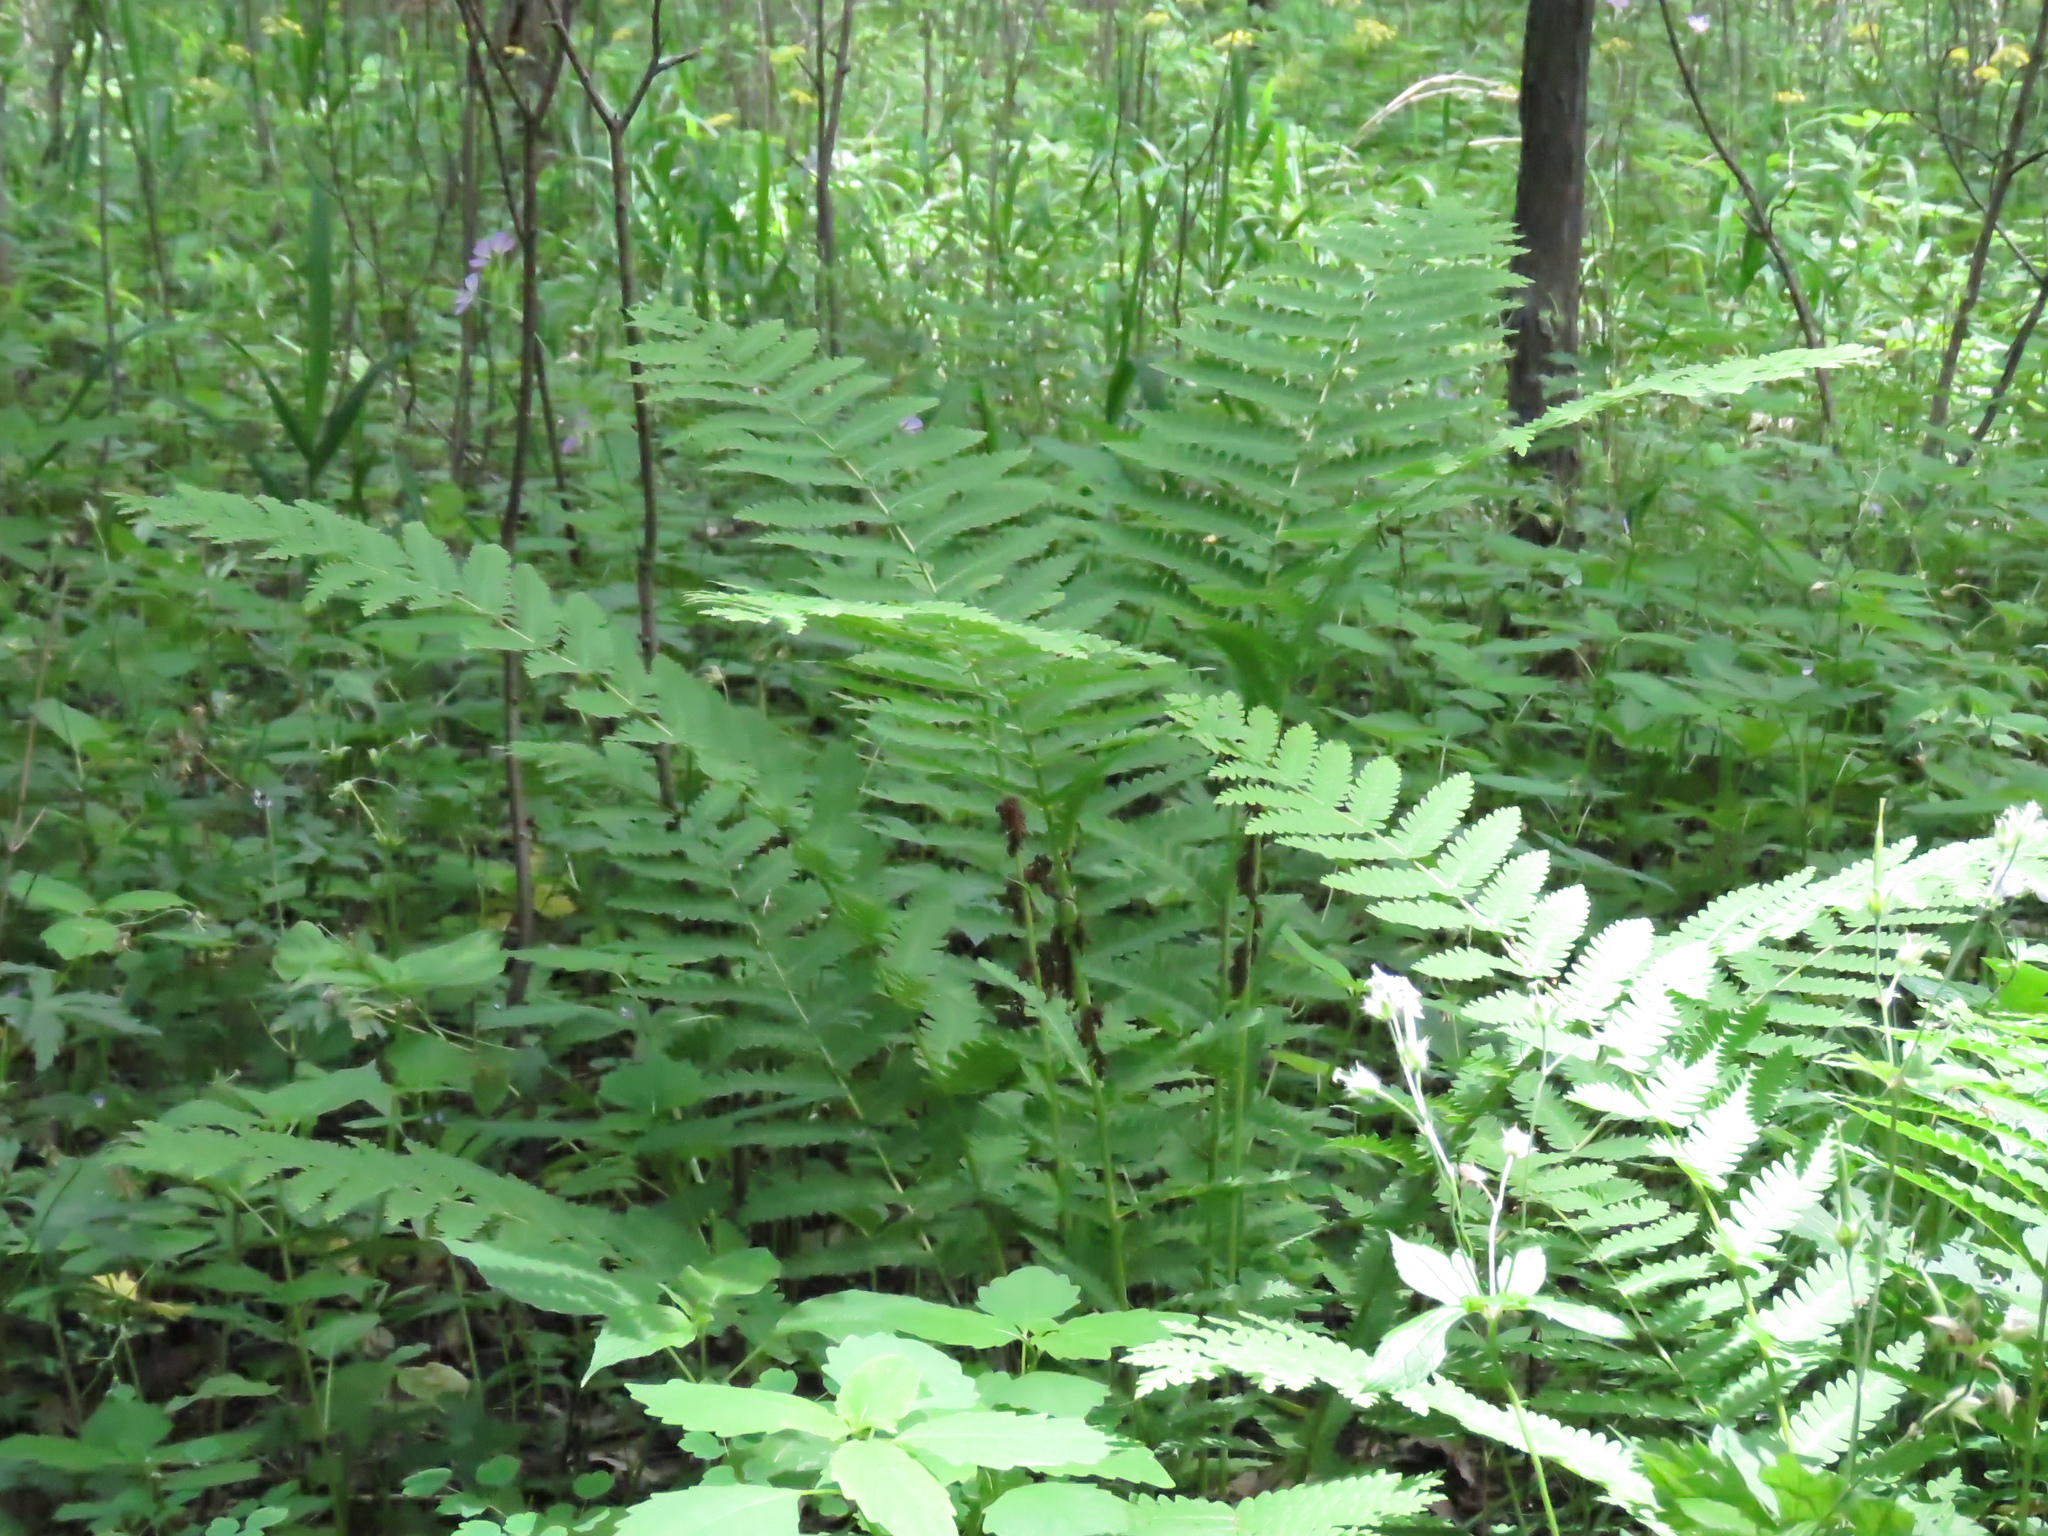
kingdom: Plantae
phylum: Tracheophyta
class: Polypodiopsida
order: Osmundales
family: Osmundaceae
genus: Claytosmunda
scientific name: Claytosmunda claytoniana
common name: Clayton's fern
